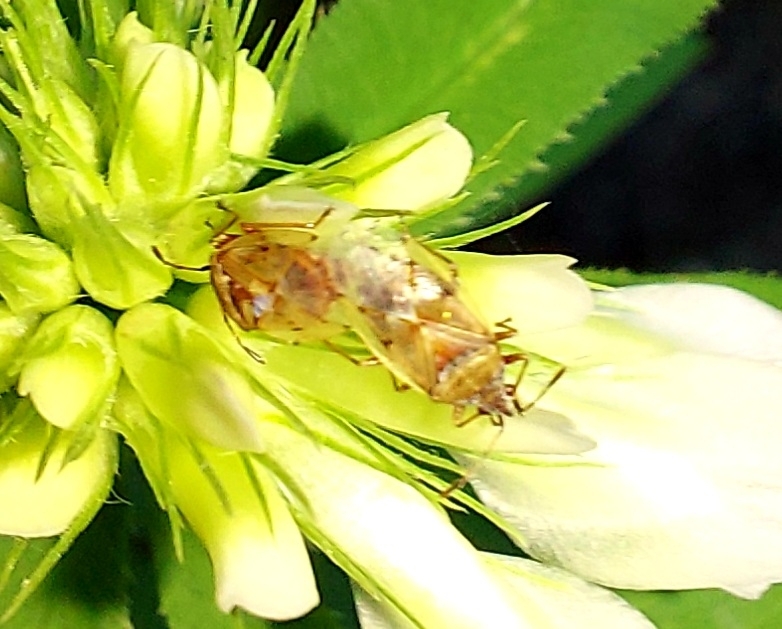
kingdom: Animalia
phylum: Arthropoda
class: Insecta
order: Hemiptera
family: Lygaeidae
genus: Kleidocerys
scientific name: Kleidocerys resedae
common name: Birch catkin bug
